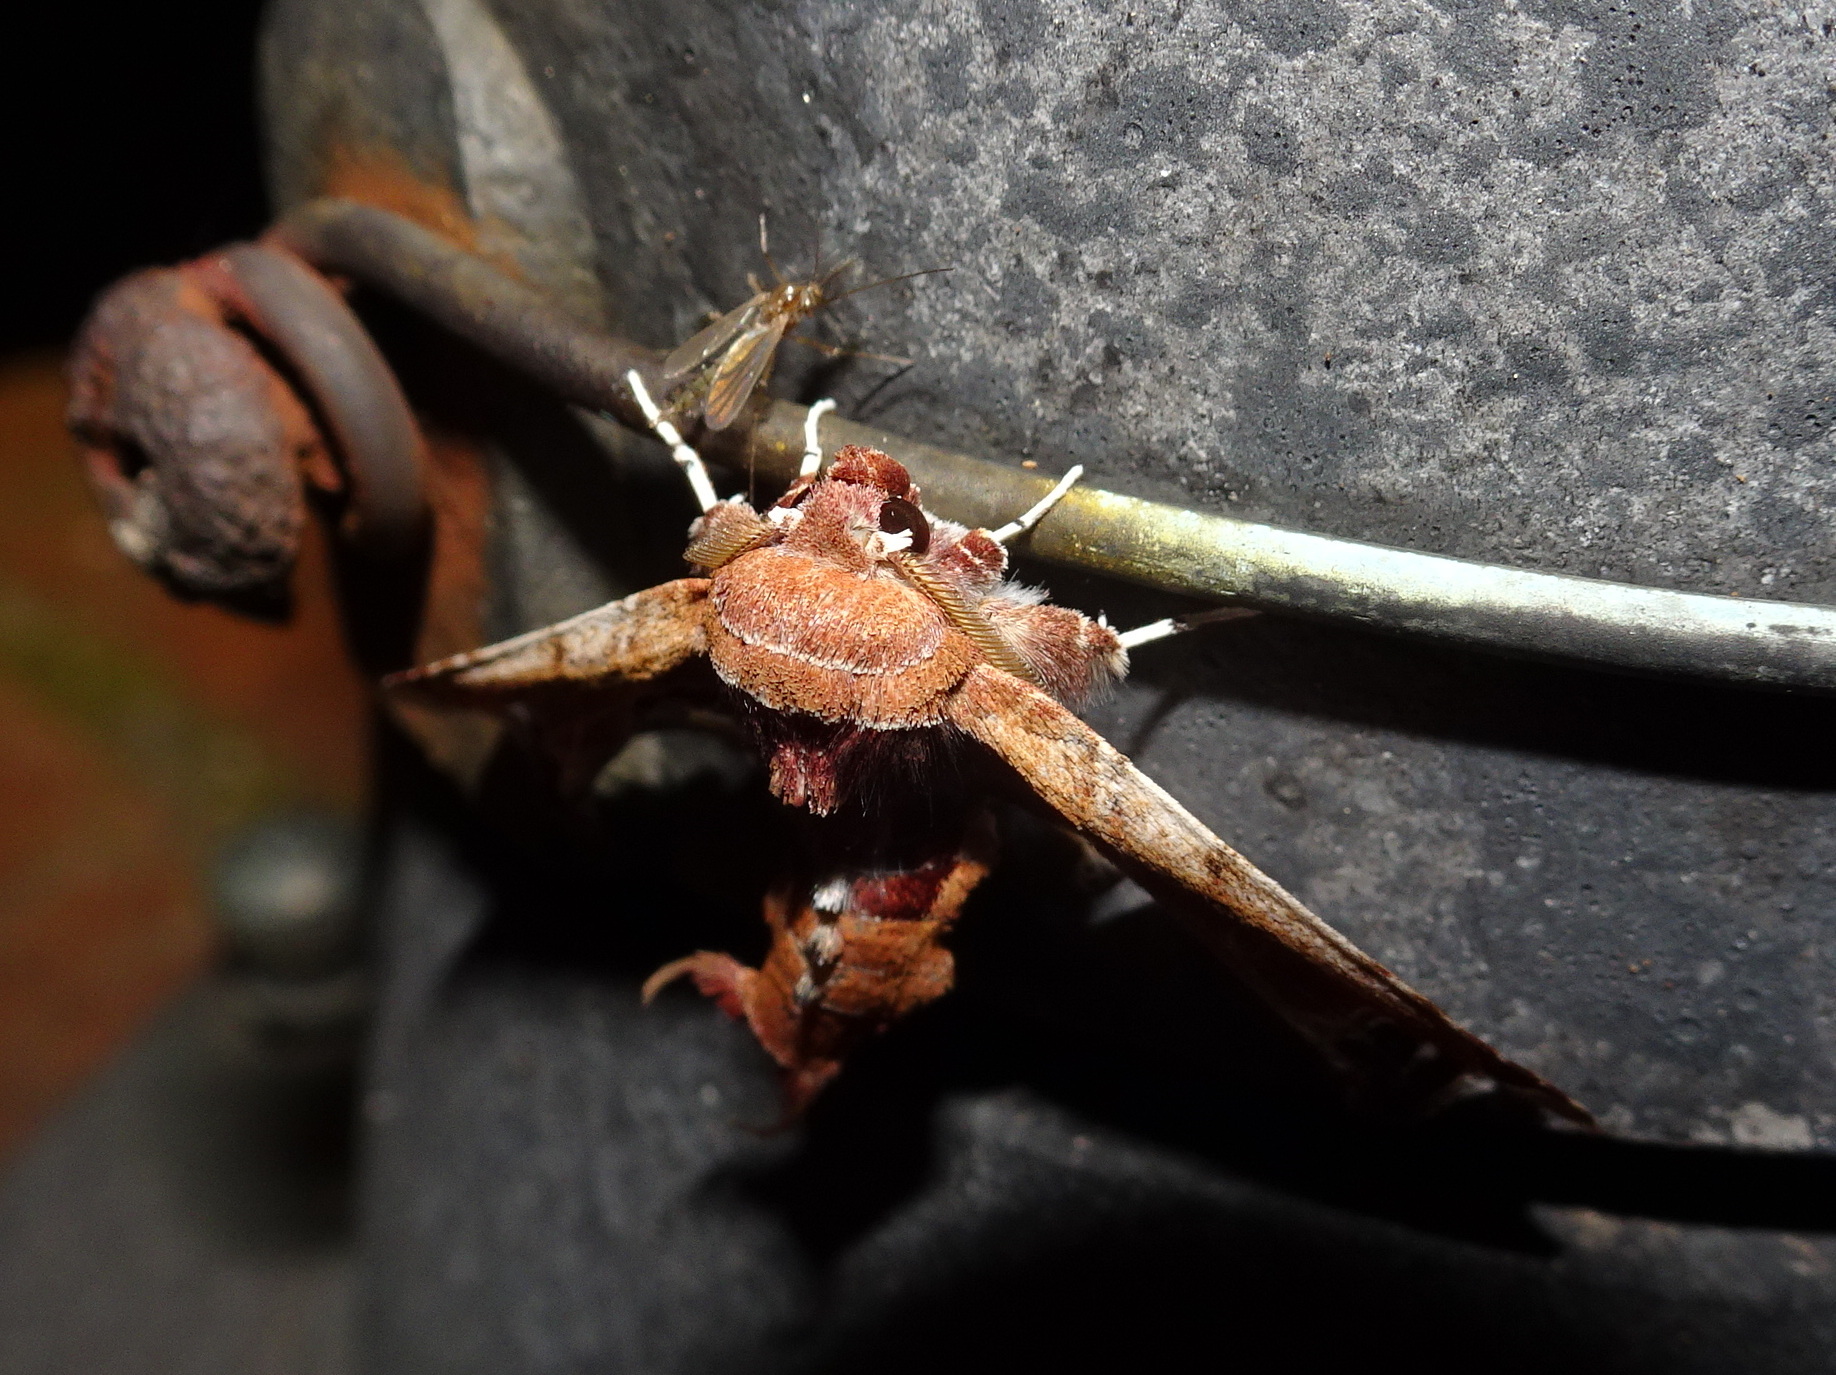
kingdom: Animalia
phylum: Arthropoda
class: Insecta
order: Lepidoptera
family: Euteliidae
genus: Eutelia
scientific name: Eutelia pulcherrimus
